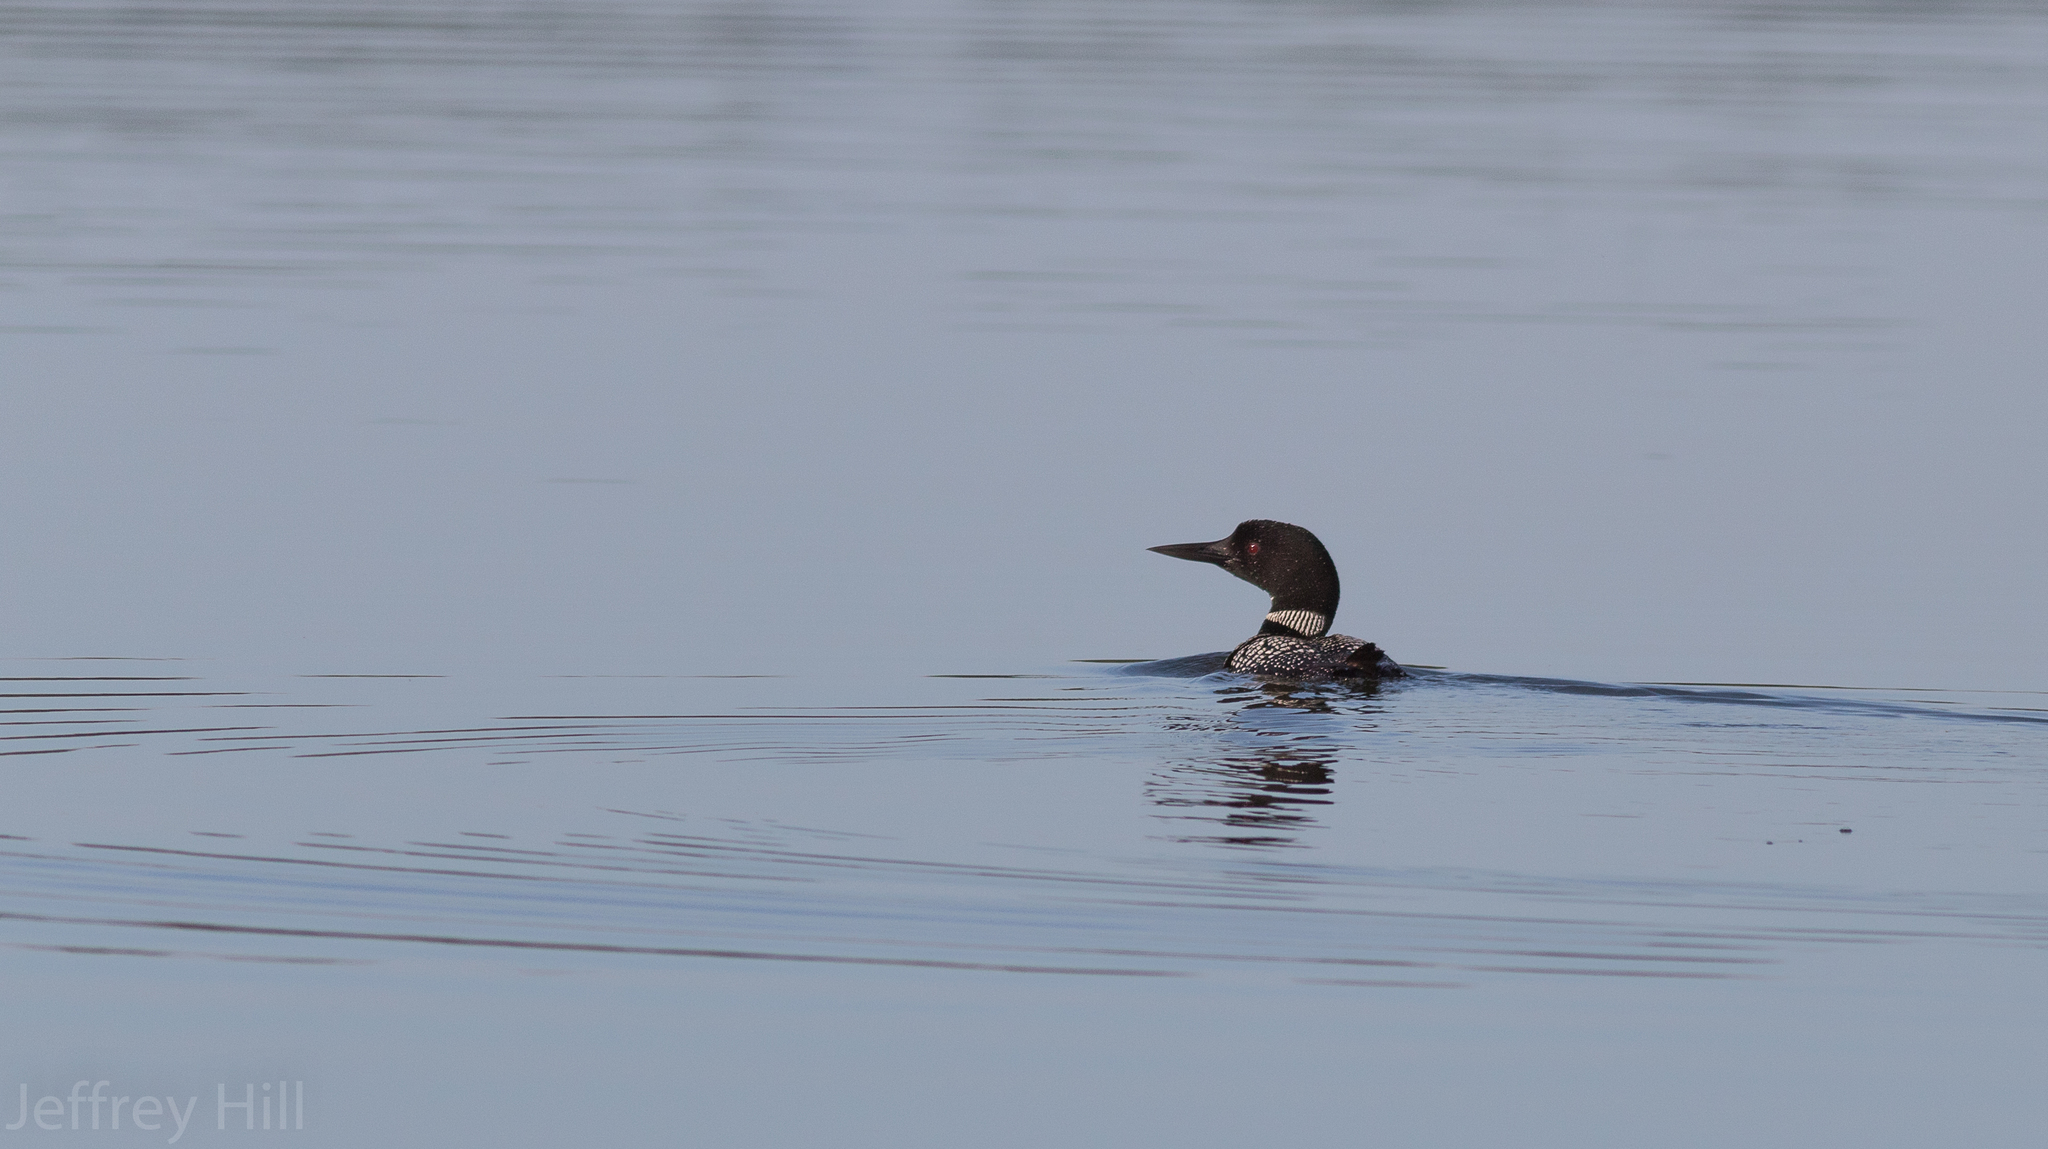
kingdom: Animalia
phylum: Chordata
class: Aves
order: Gaviiformes
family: Gaviidae
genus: Gavia
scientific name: Gavia immer
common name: Common loon
